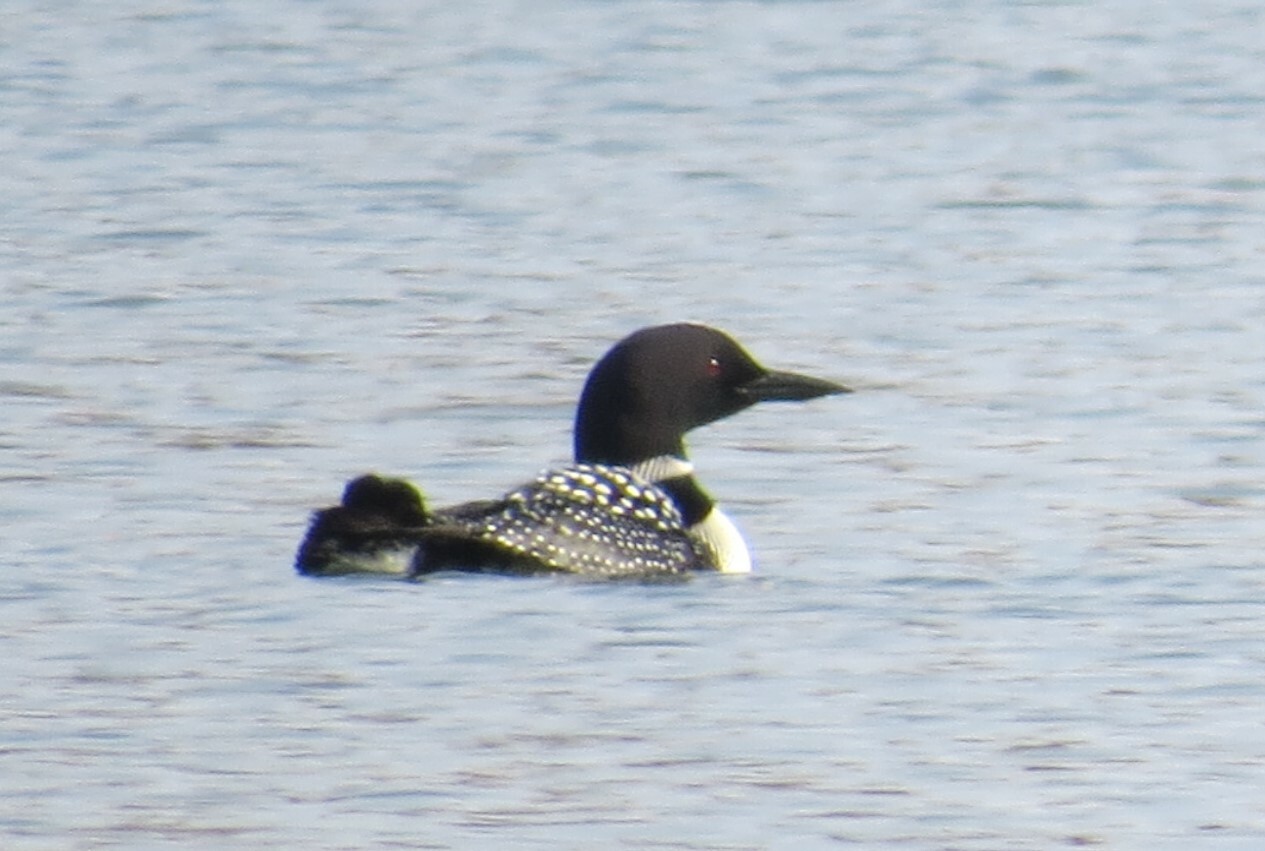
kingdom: Animalia
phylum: Chordata
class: Aves
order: Gaviiformes
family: Gaviidae
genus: Gavia
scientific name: Gavia immer
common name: Common loon
